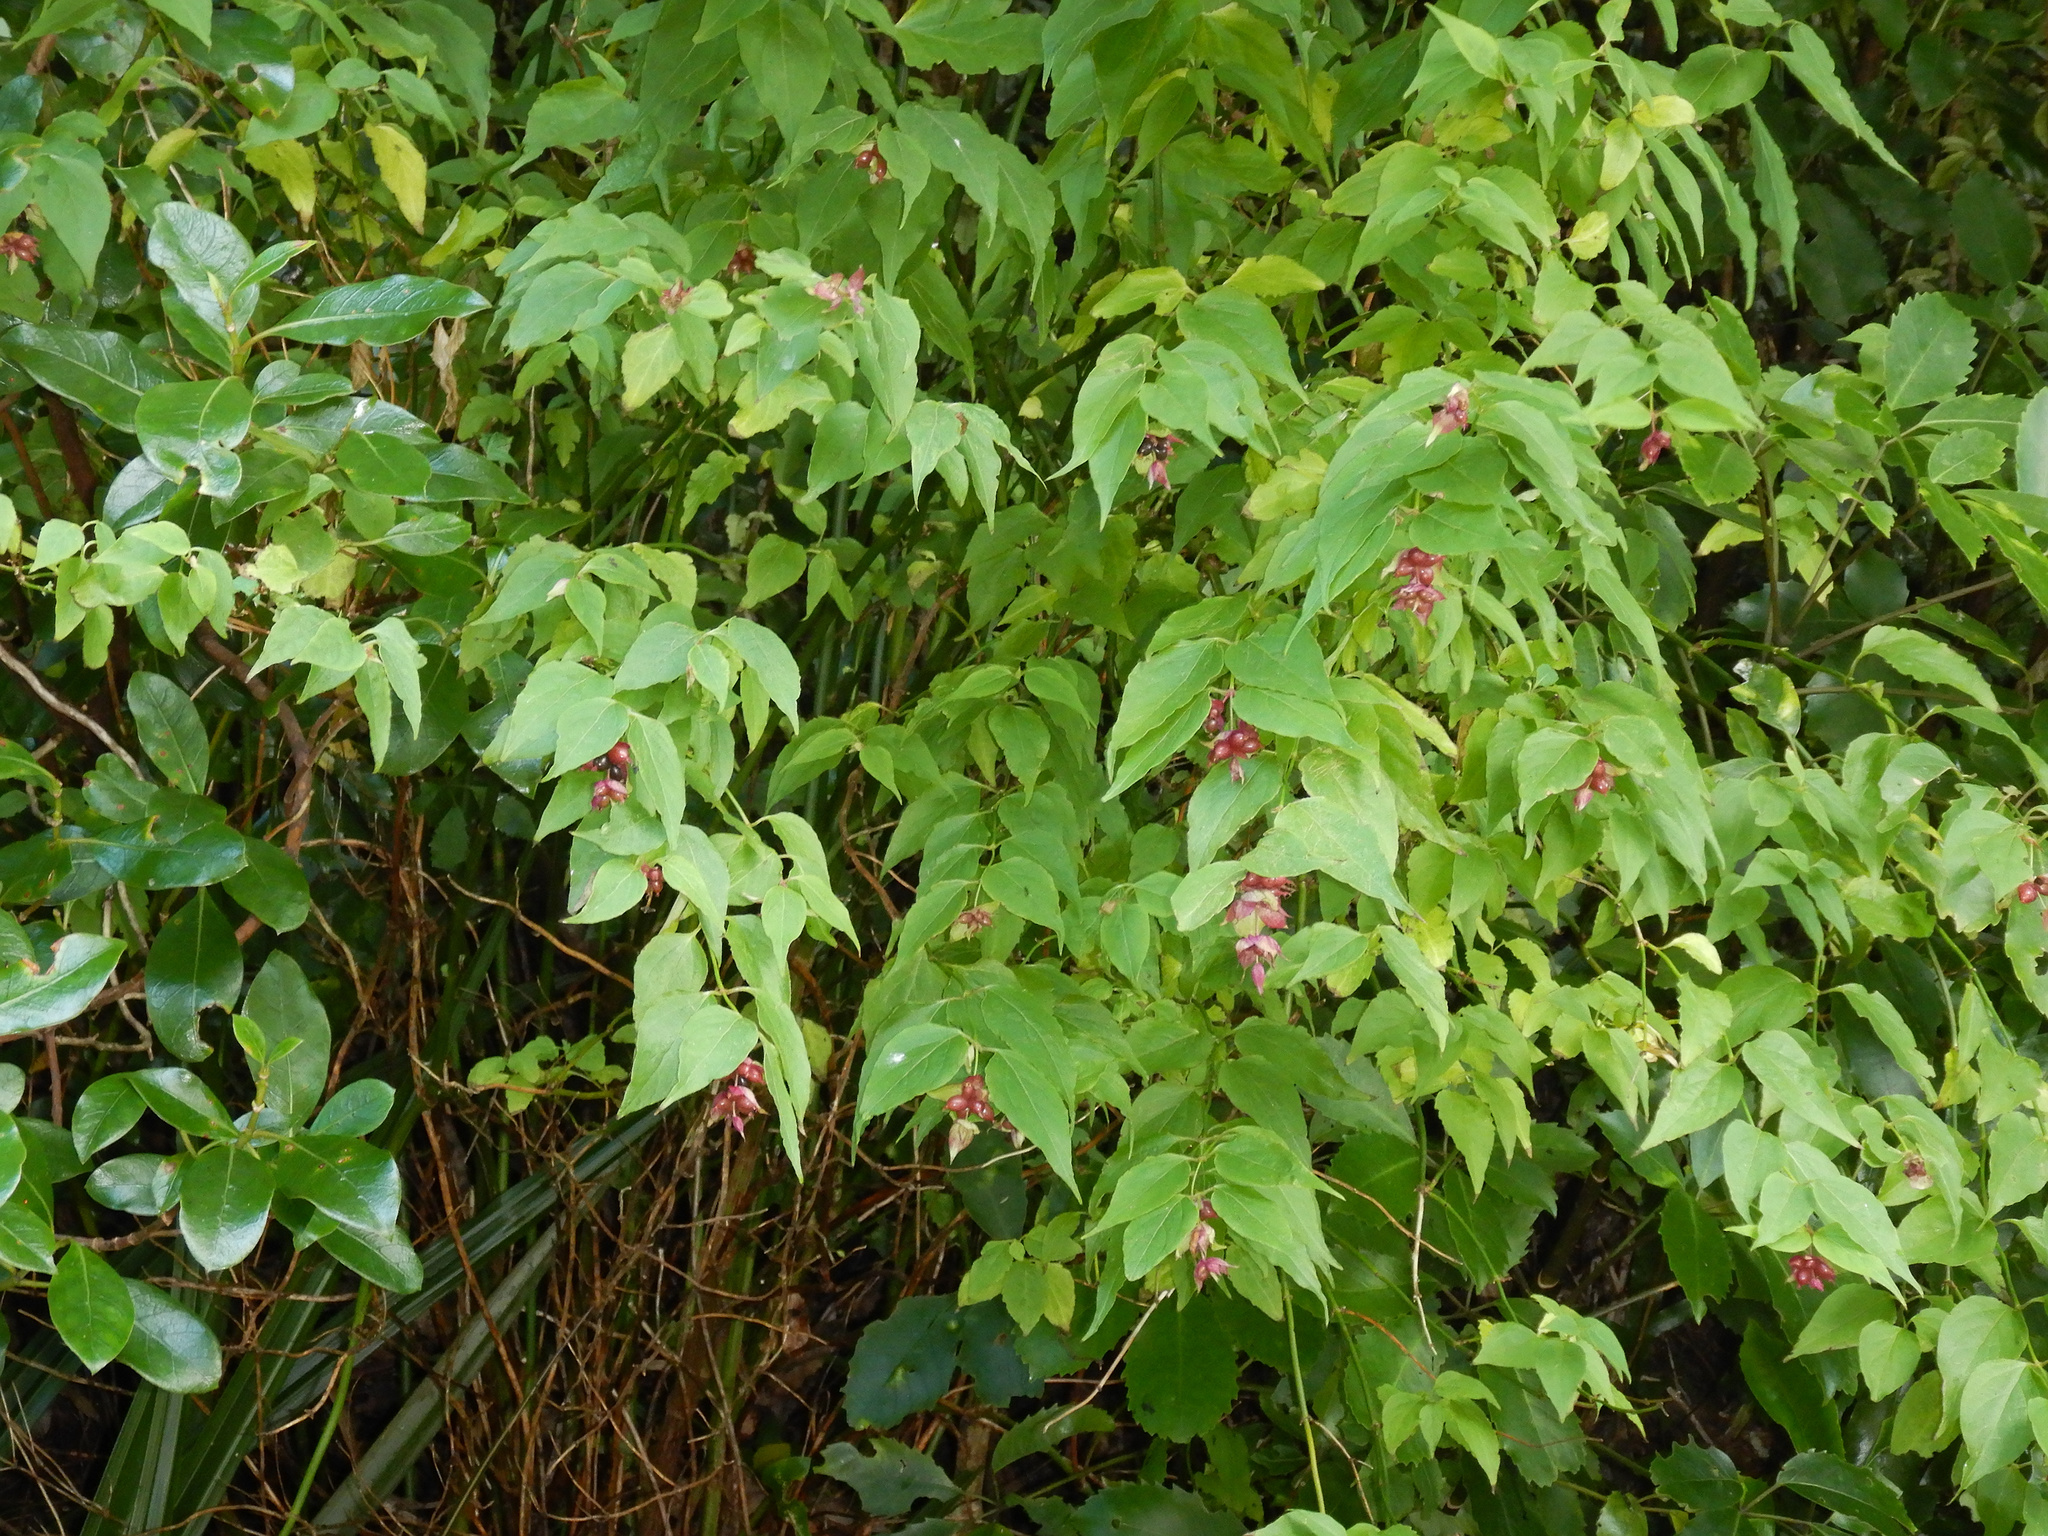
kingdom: Plantae
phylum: Tracheophyta
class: Magnoliopsida
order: Dipsacales
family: Caprifoliaceae
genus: Leycesteria
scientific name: Leycesteria formosa
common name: Himalayan honeysuckle
